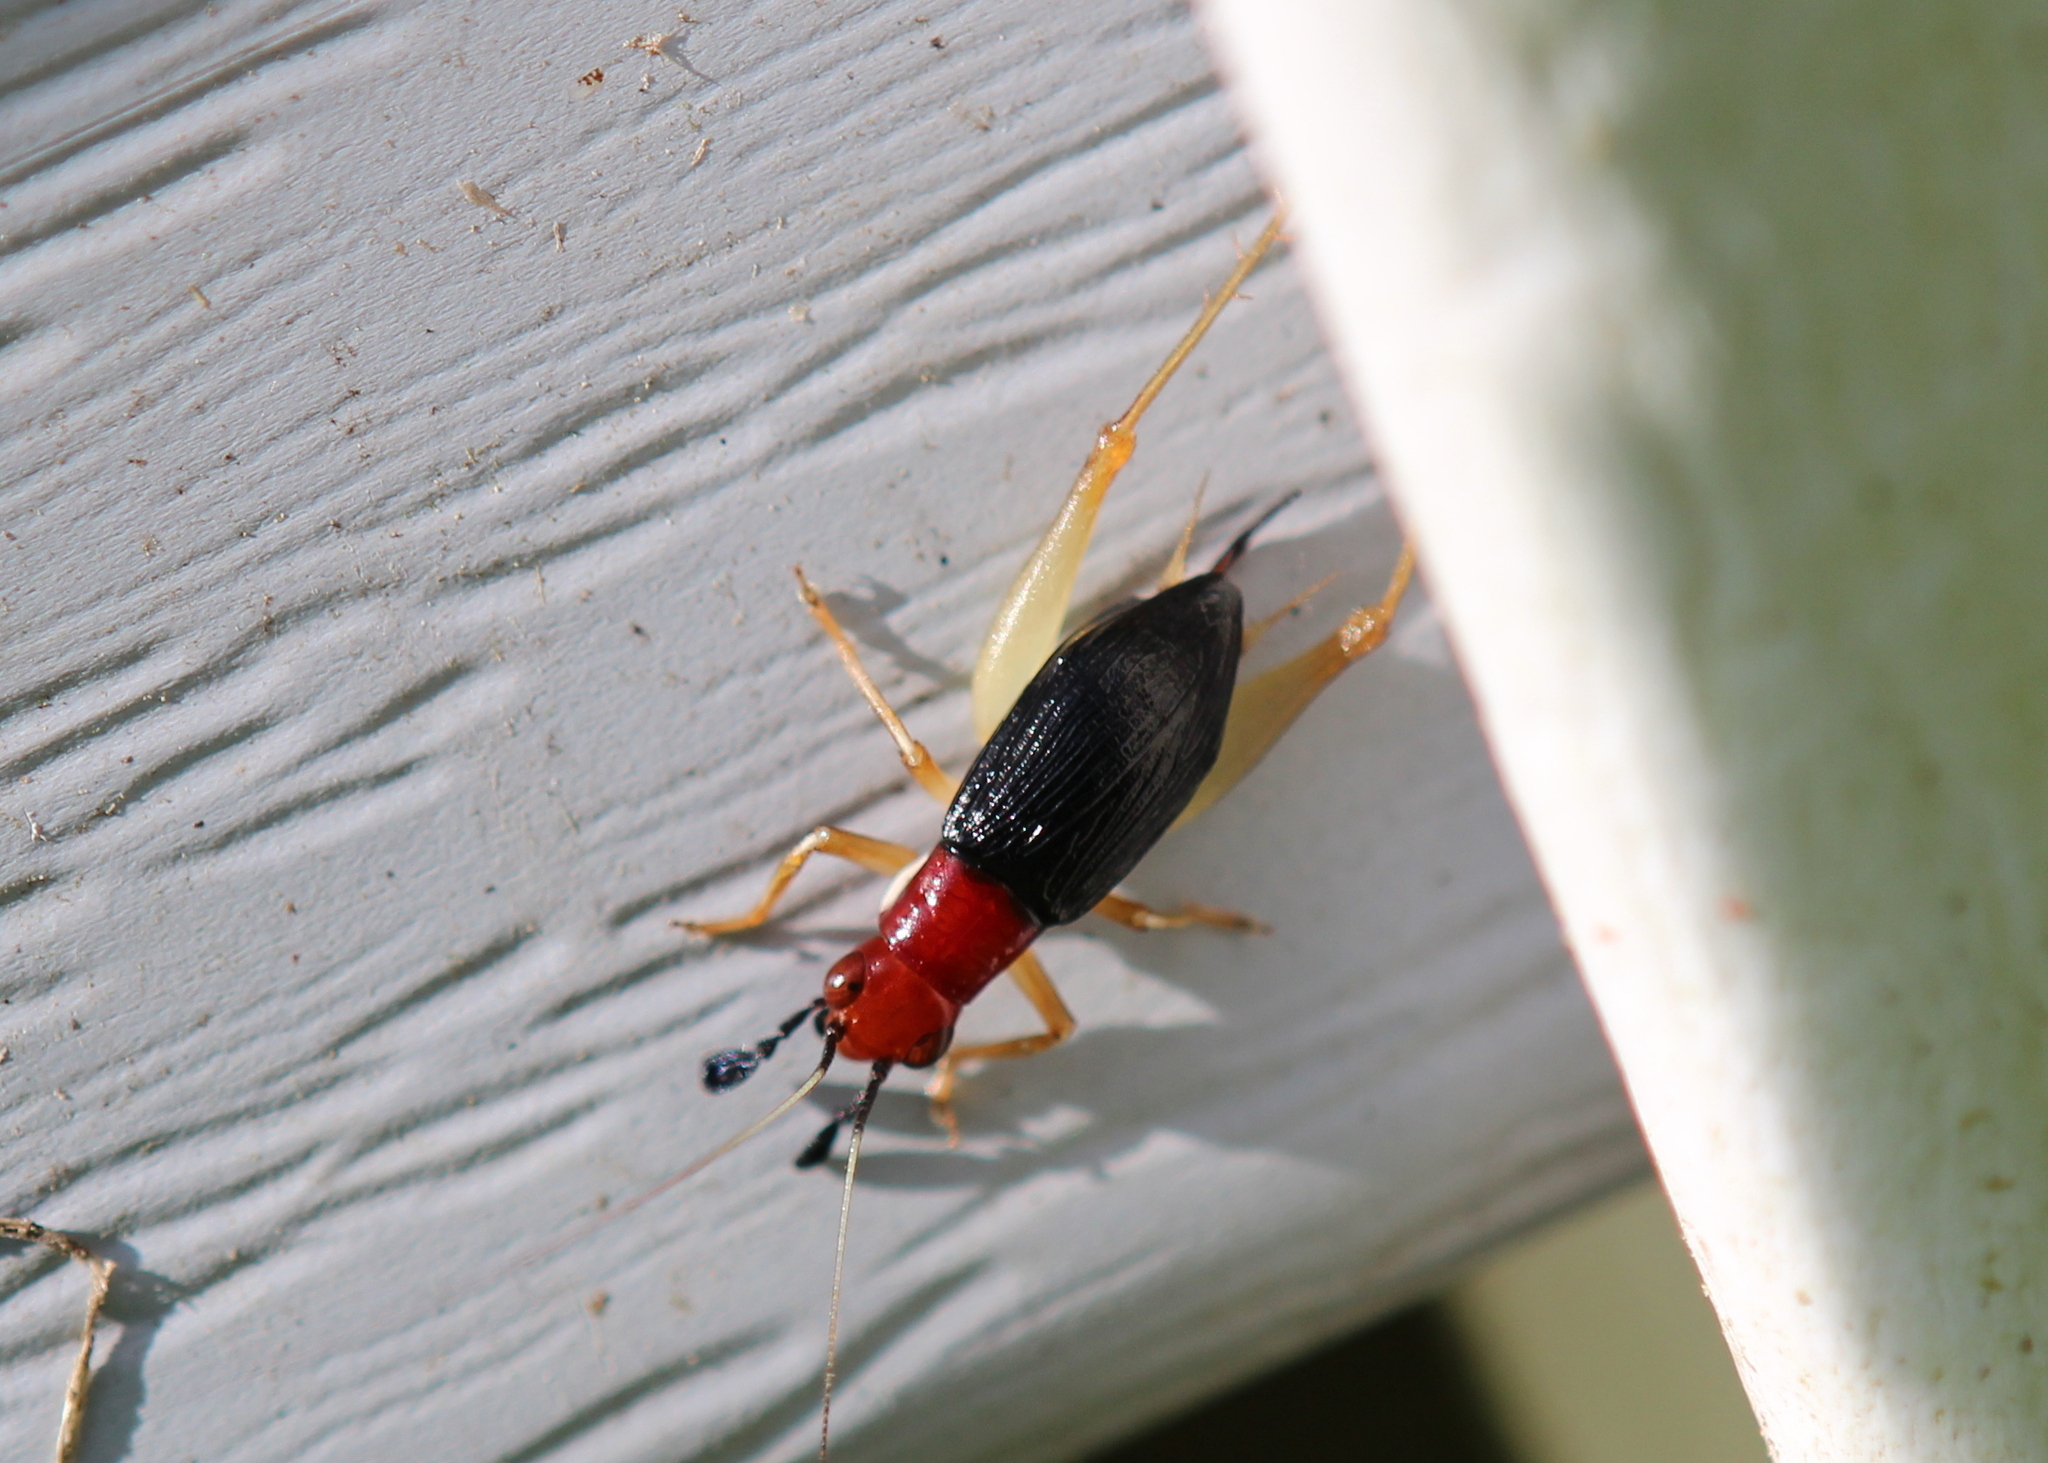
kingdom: Animalia
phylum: Arthropoda
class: Insecta
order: Orthoptera
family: Trigonidiidae
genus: Phyllopalpus
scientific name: Phyllopalpus pulchellus
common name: Handsome trig
